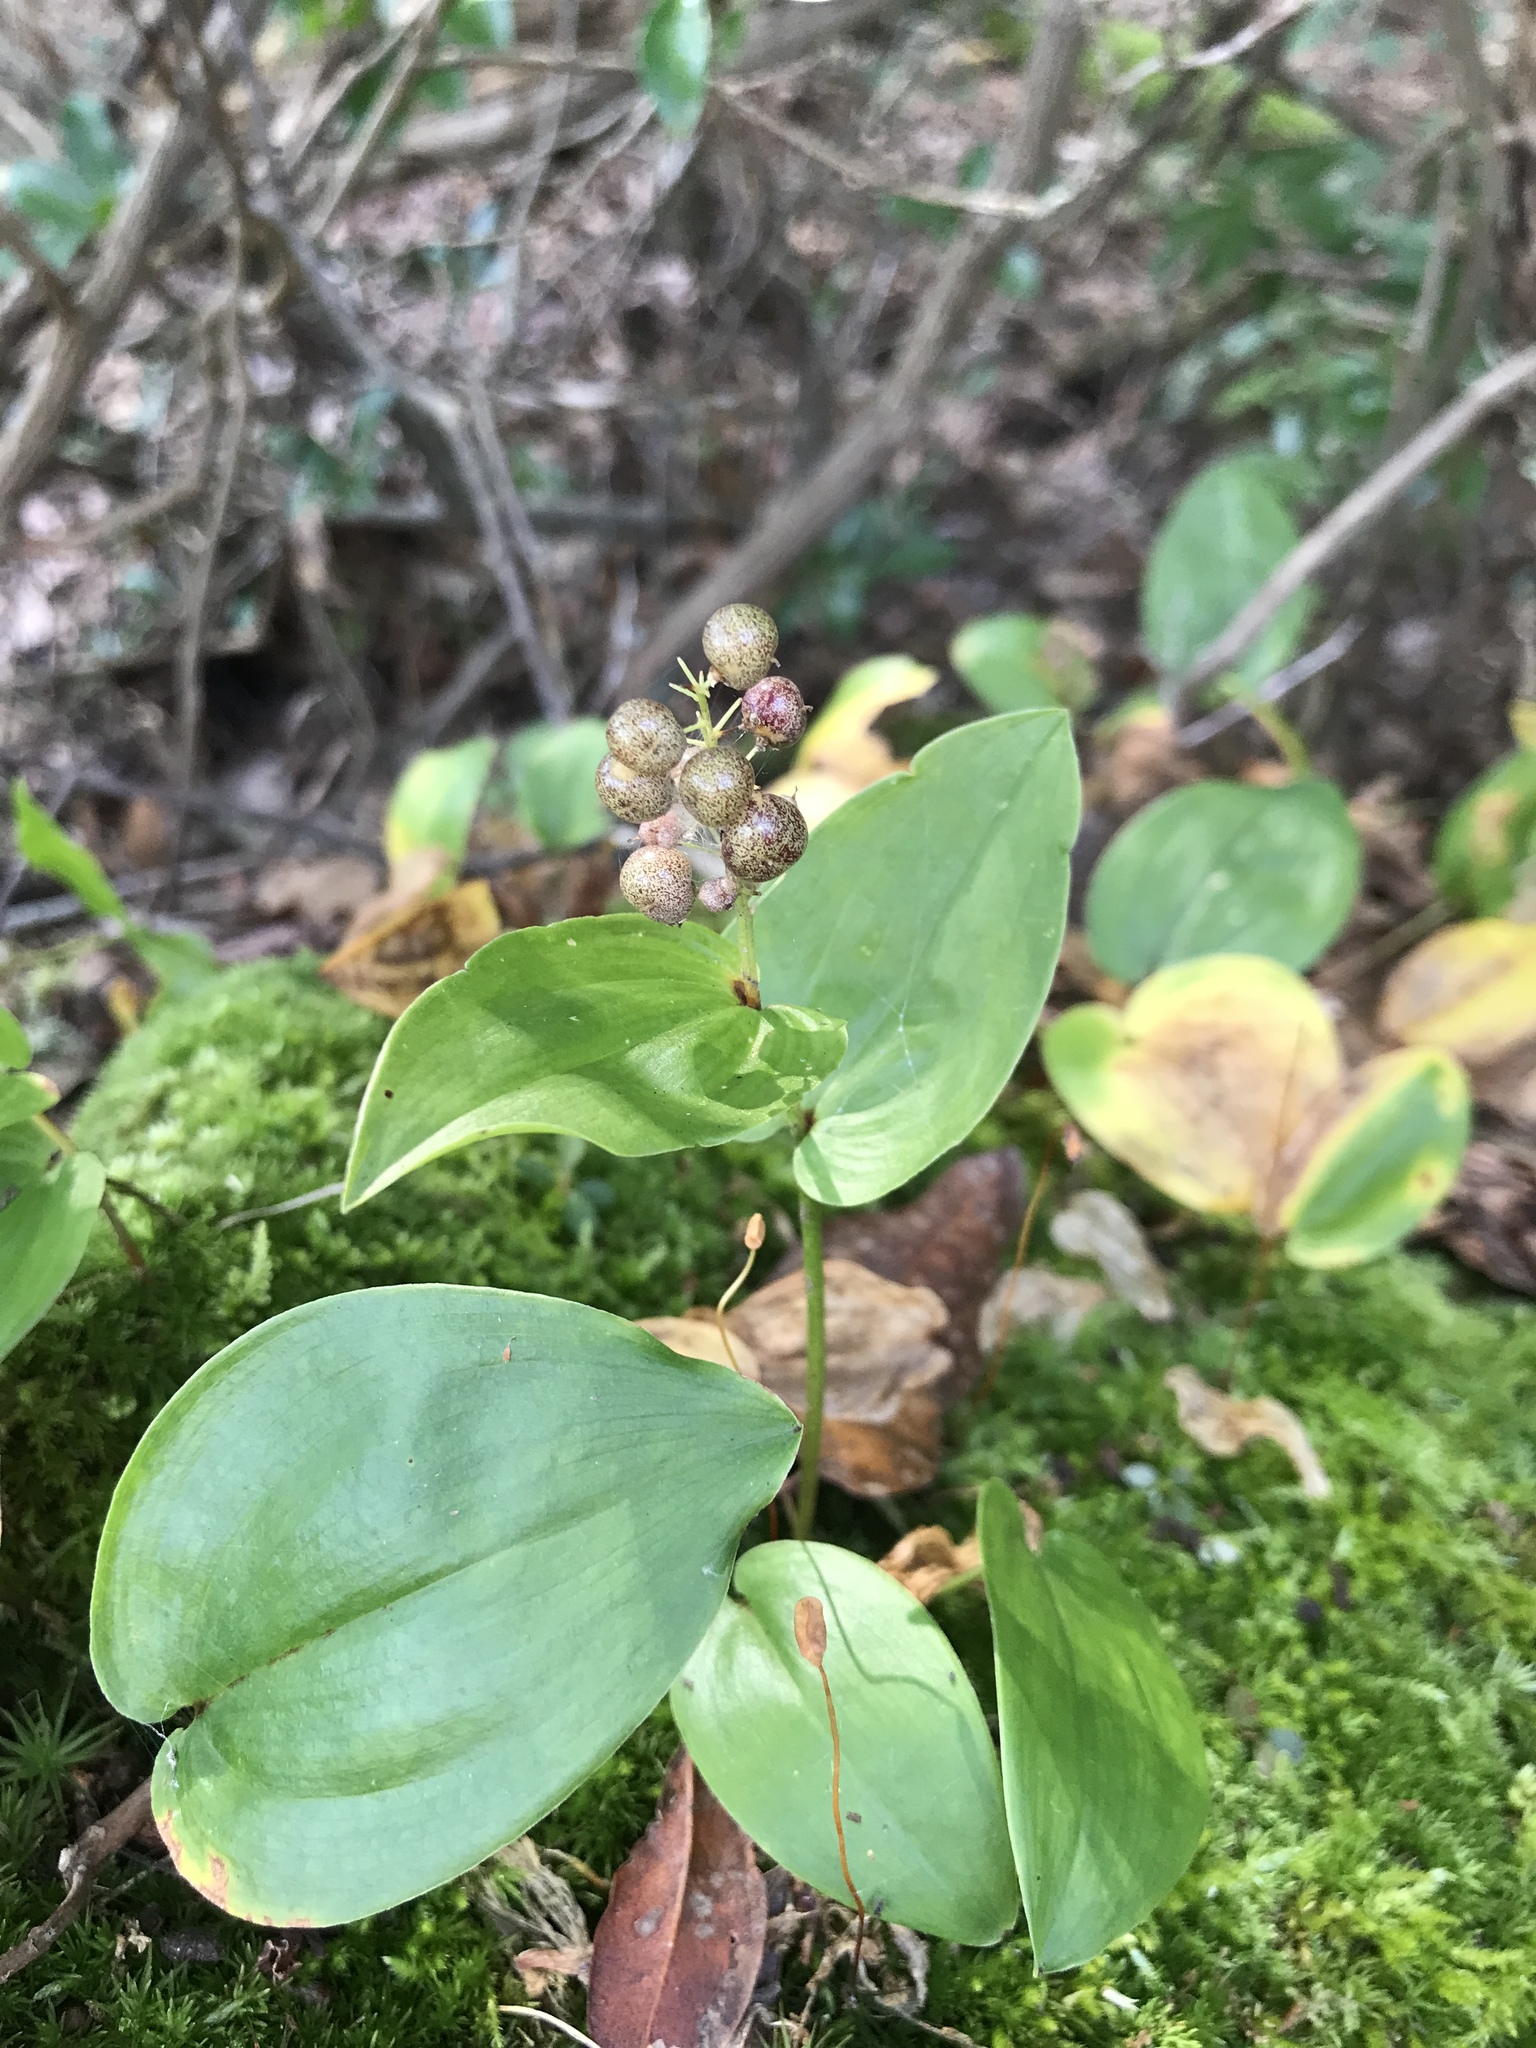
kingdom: Plantae
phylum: Tracheophyta
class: Liliopsida
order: Asparagales
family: Asparagaceae
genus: Maianthemum
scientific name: Maianthemum canadense
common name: False lily-of-the-valley
